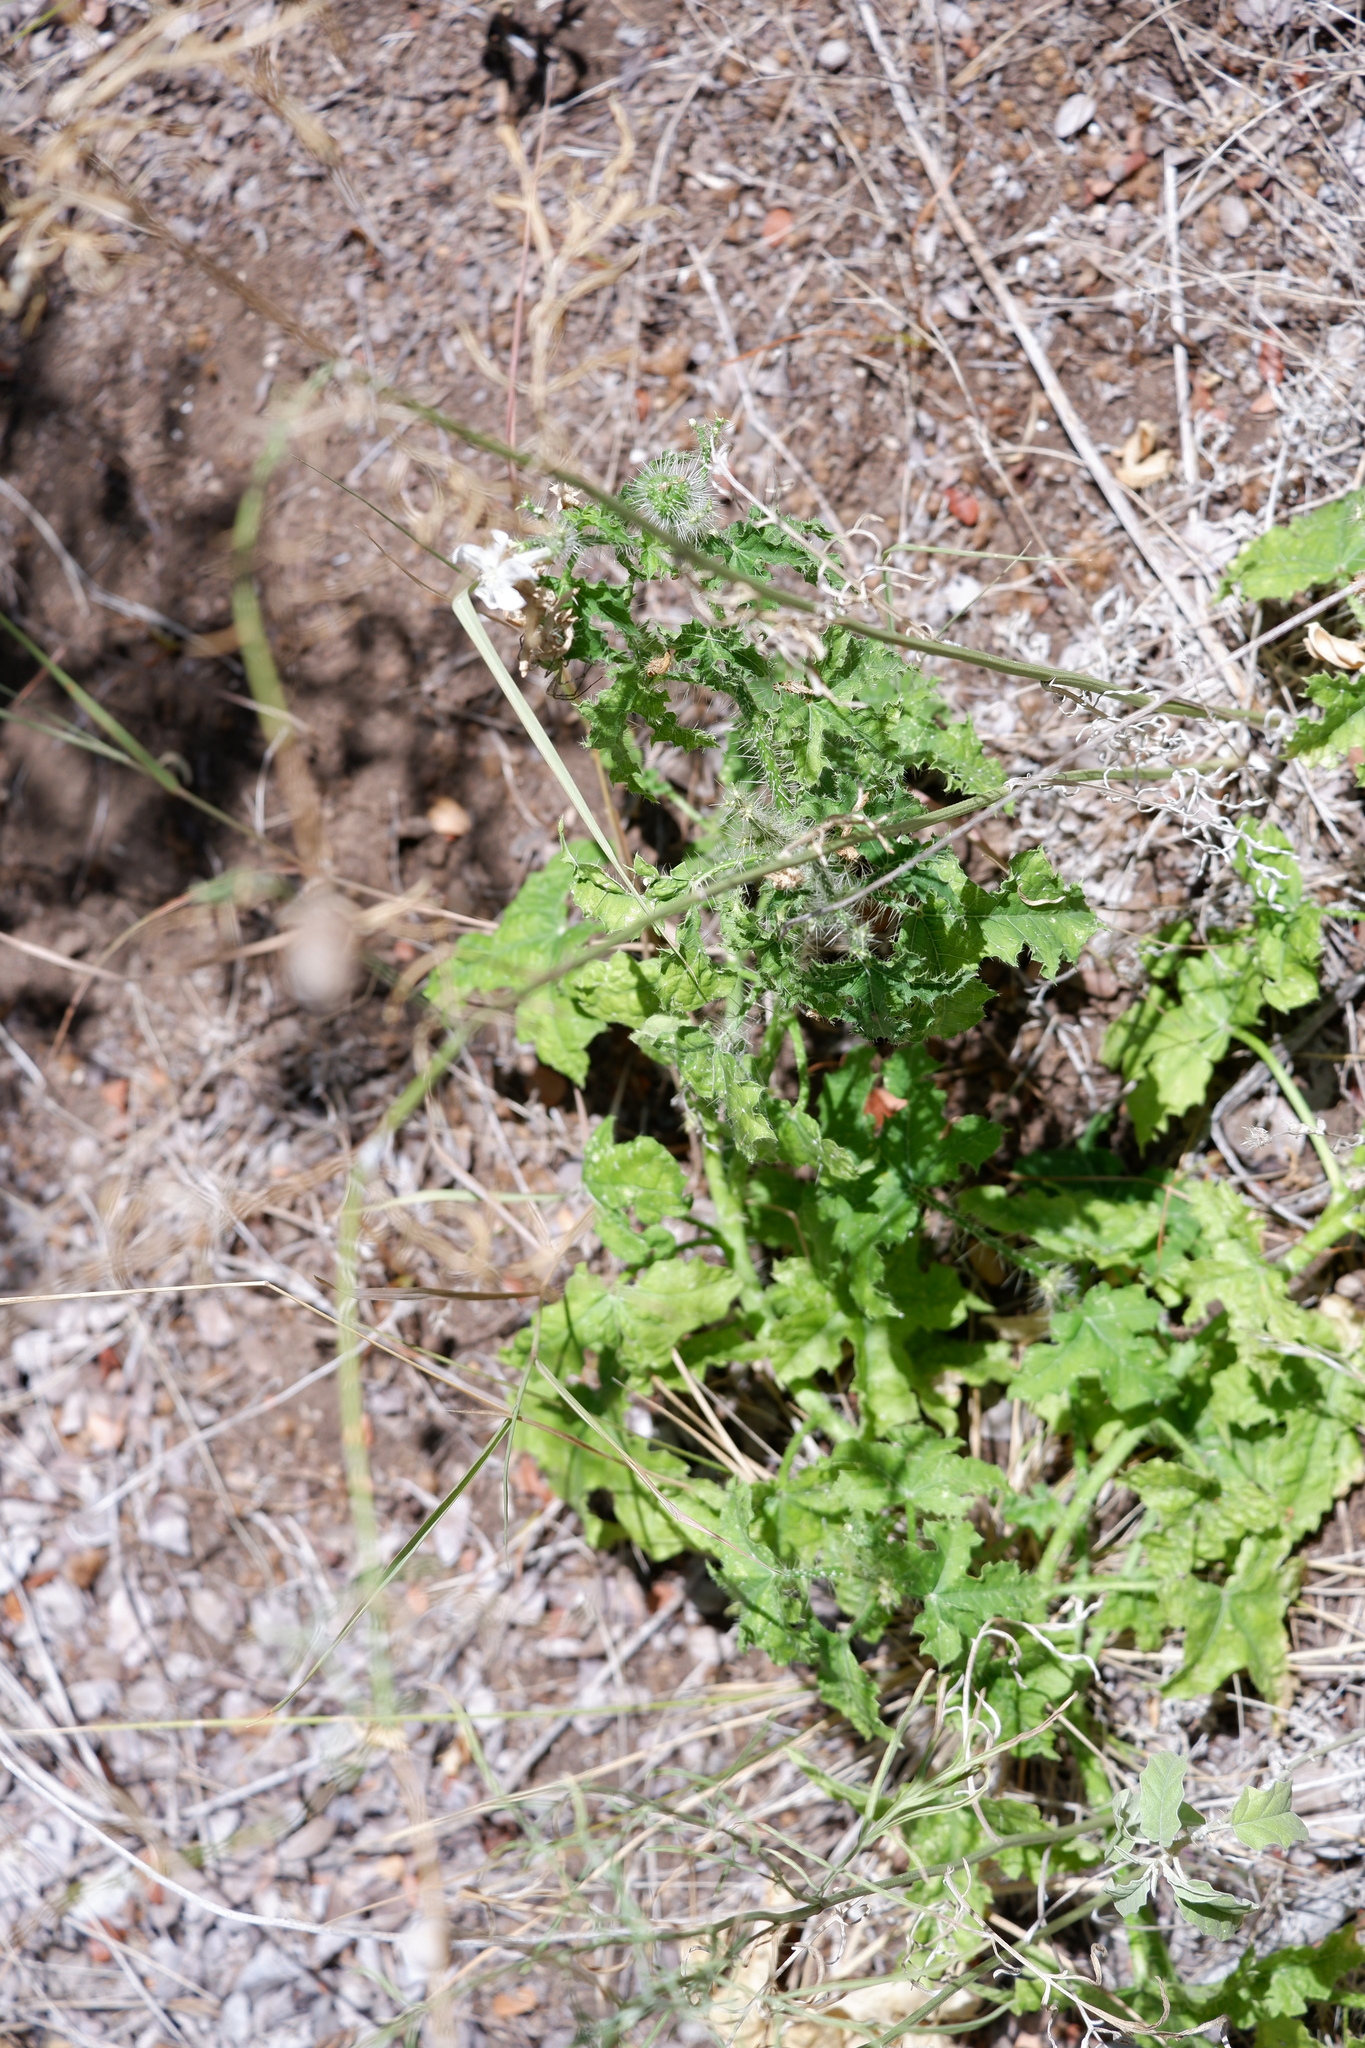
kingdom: Plantae
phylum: Tracheophyta
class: Magnoliopsida
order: Malpighiales
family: Euphorbiaceae
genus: Cnidoscolus
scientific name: Cnidoscolus texanus
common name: Texas bull-nettle
